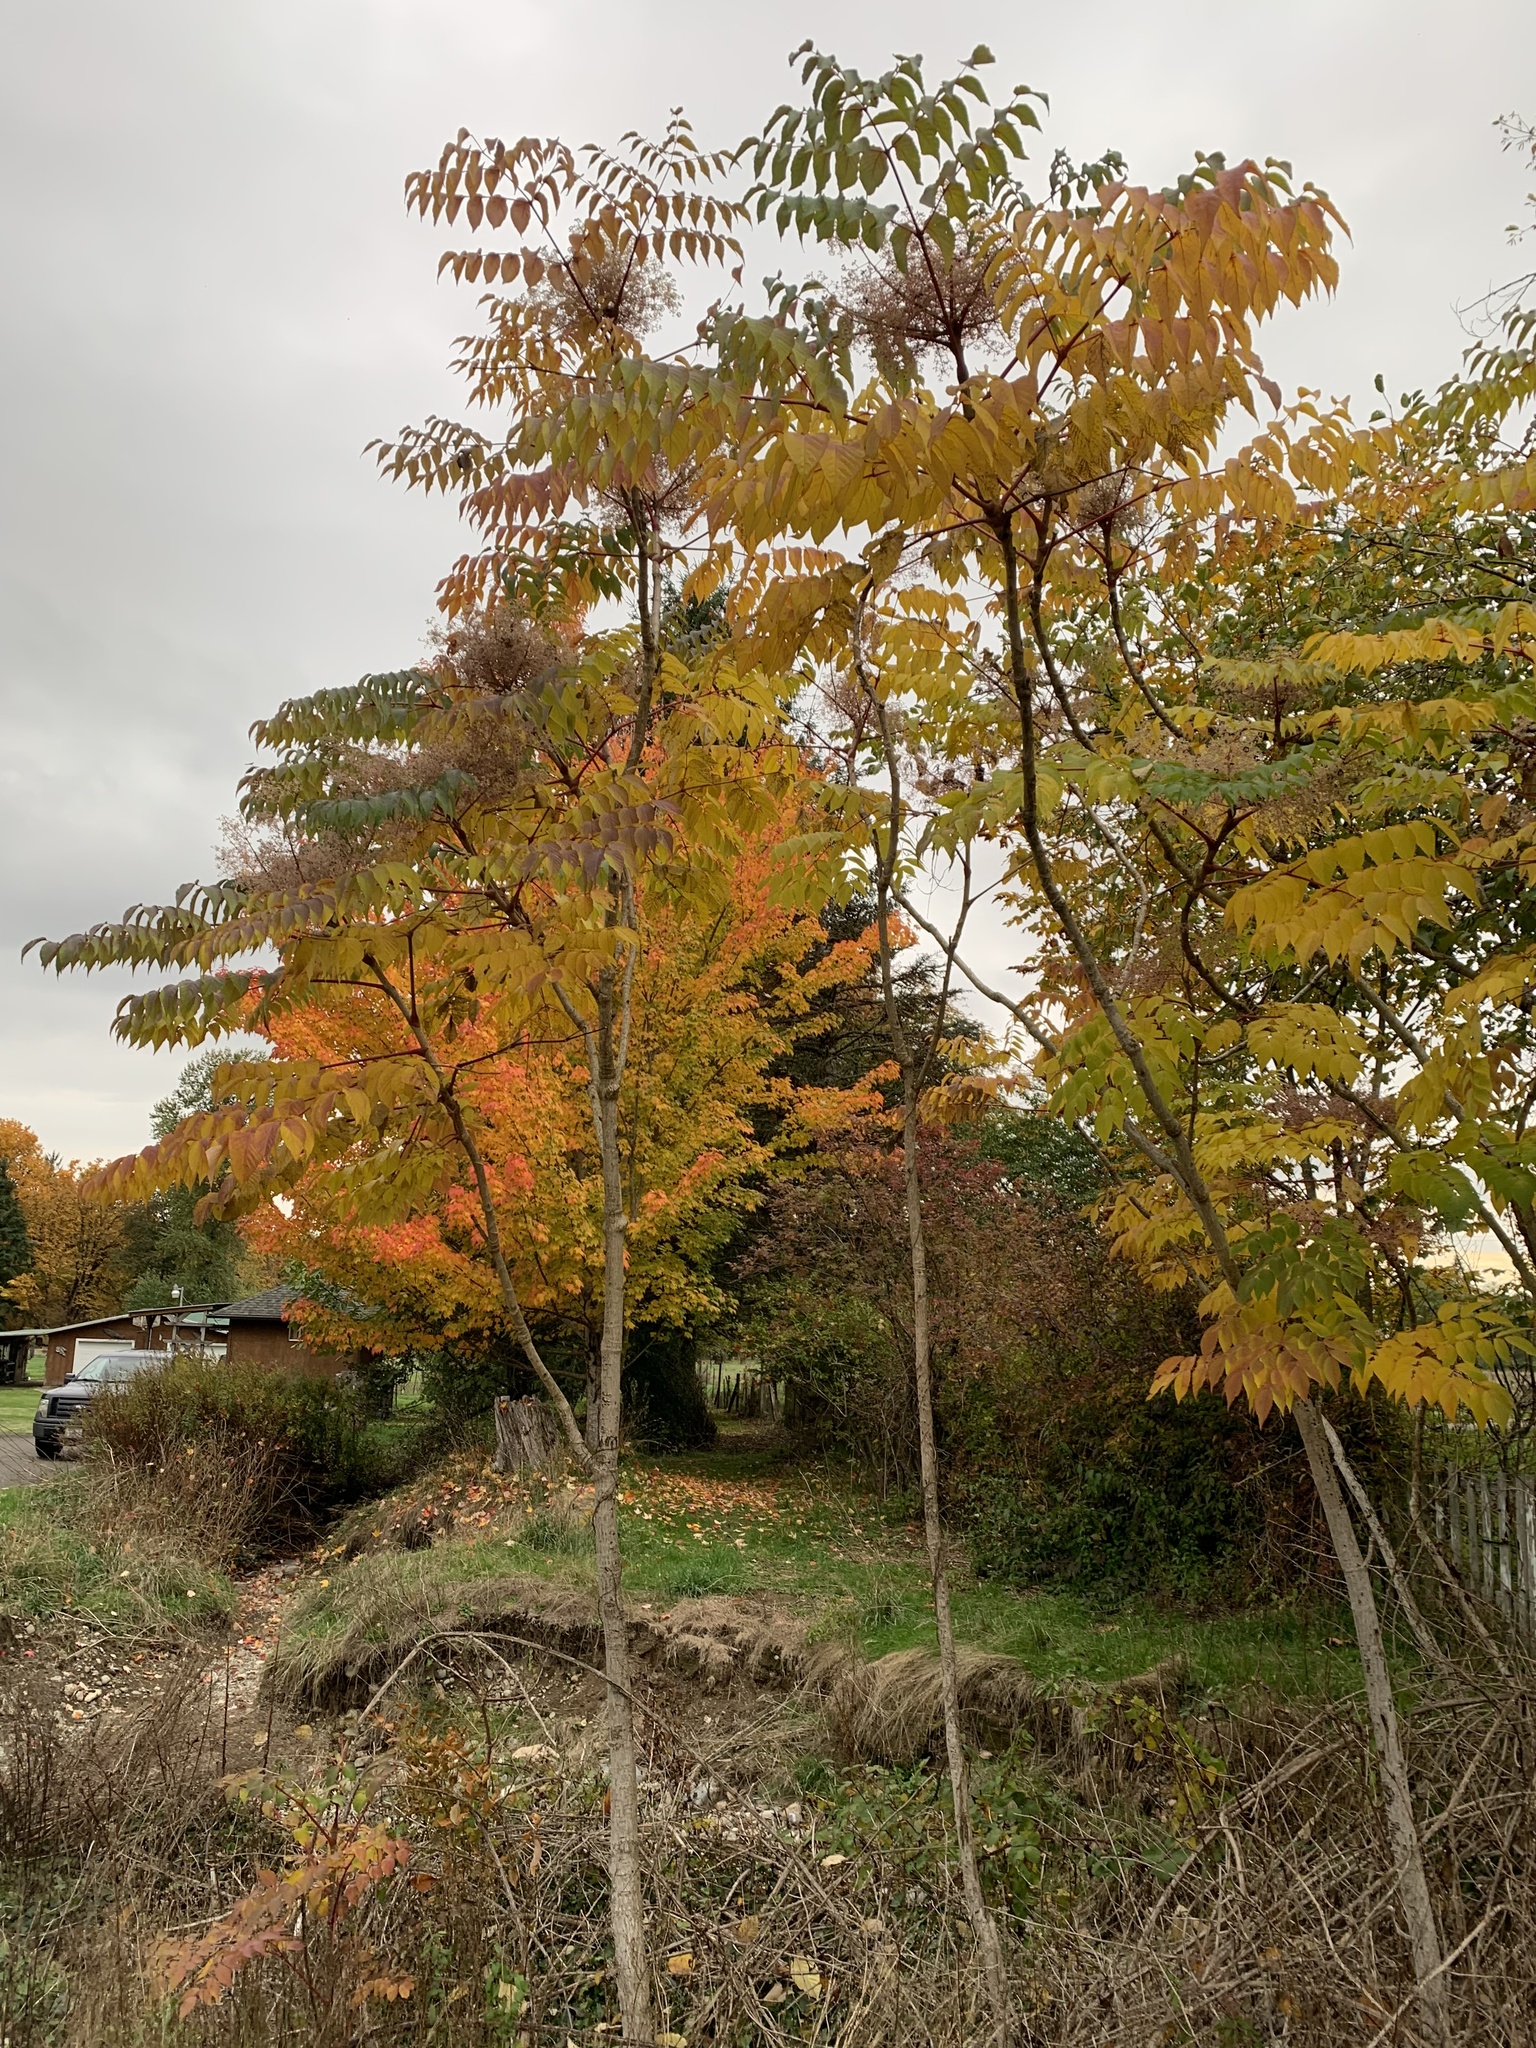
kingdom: Plantae
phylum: Tracheophyta
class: Magnoliopsida
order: Apiales
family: Araliaceae
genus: Aralia
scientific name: Aralia elata
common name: Japanese angelica-tree
